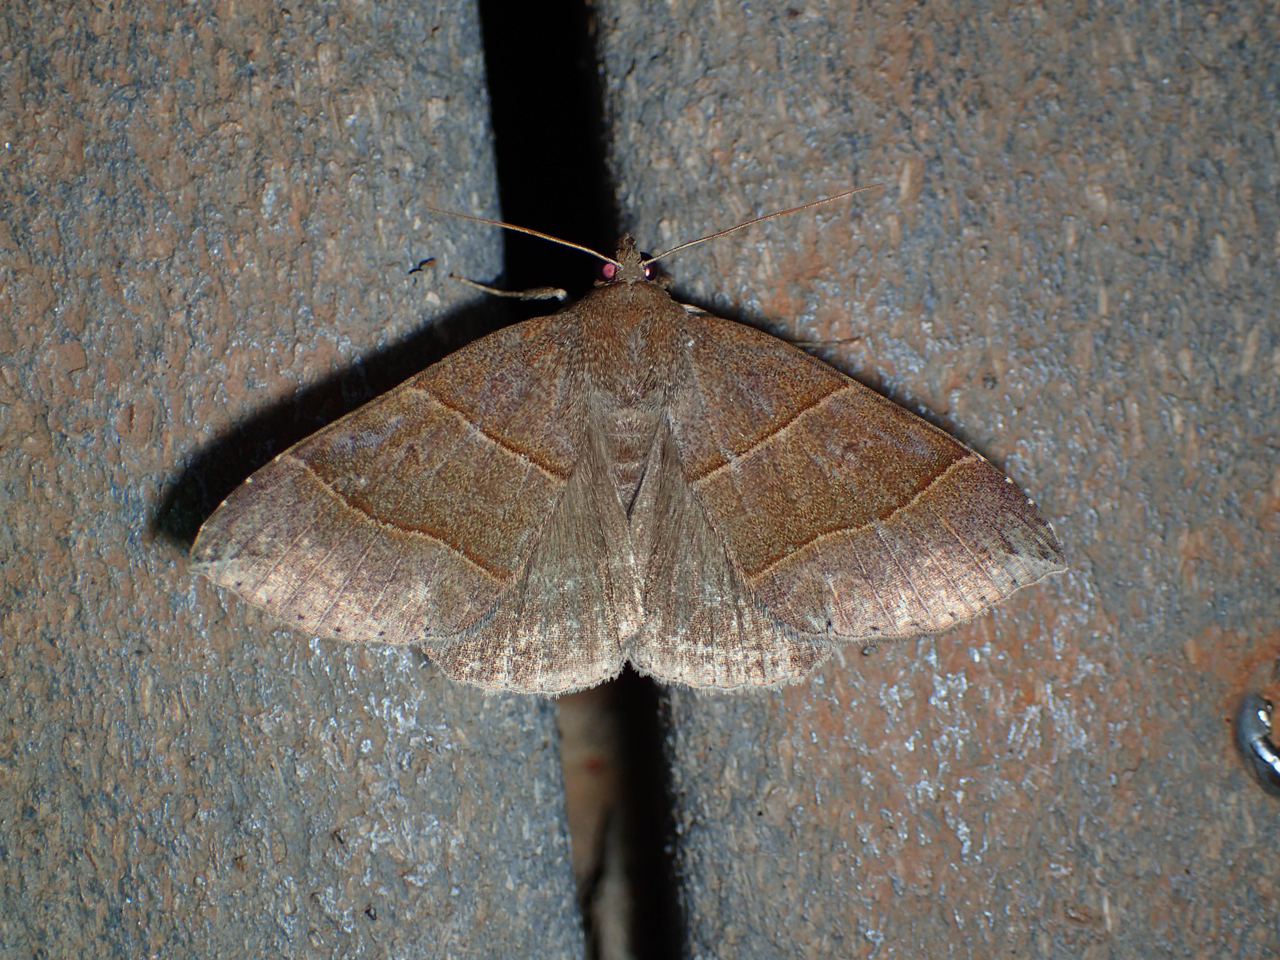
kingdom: Animalia
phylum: Arthropoda
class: Insecta
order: Lepidoptera
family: Erebidae
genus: Parallelia
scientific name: Parallelia bistriaris
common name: Maple looper moth
